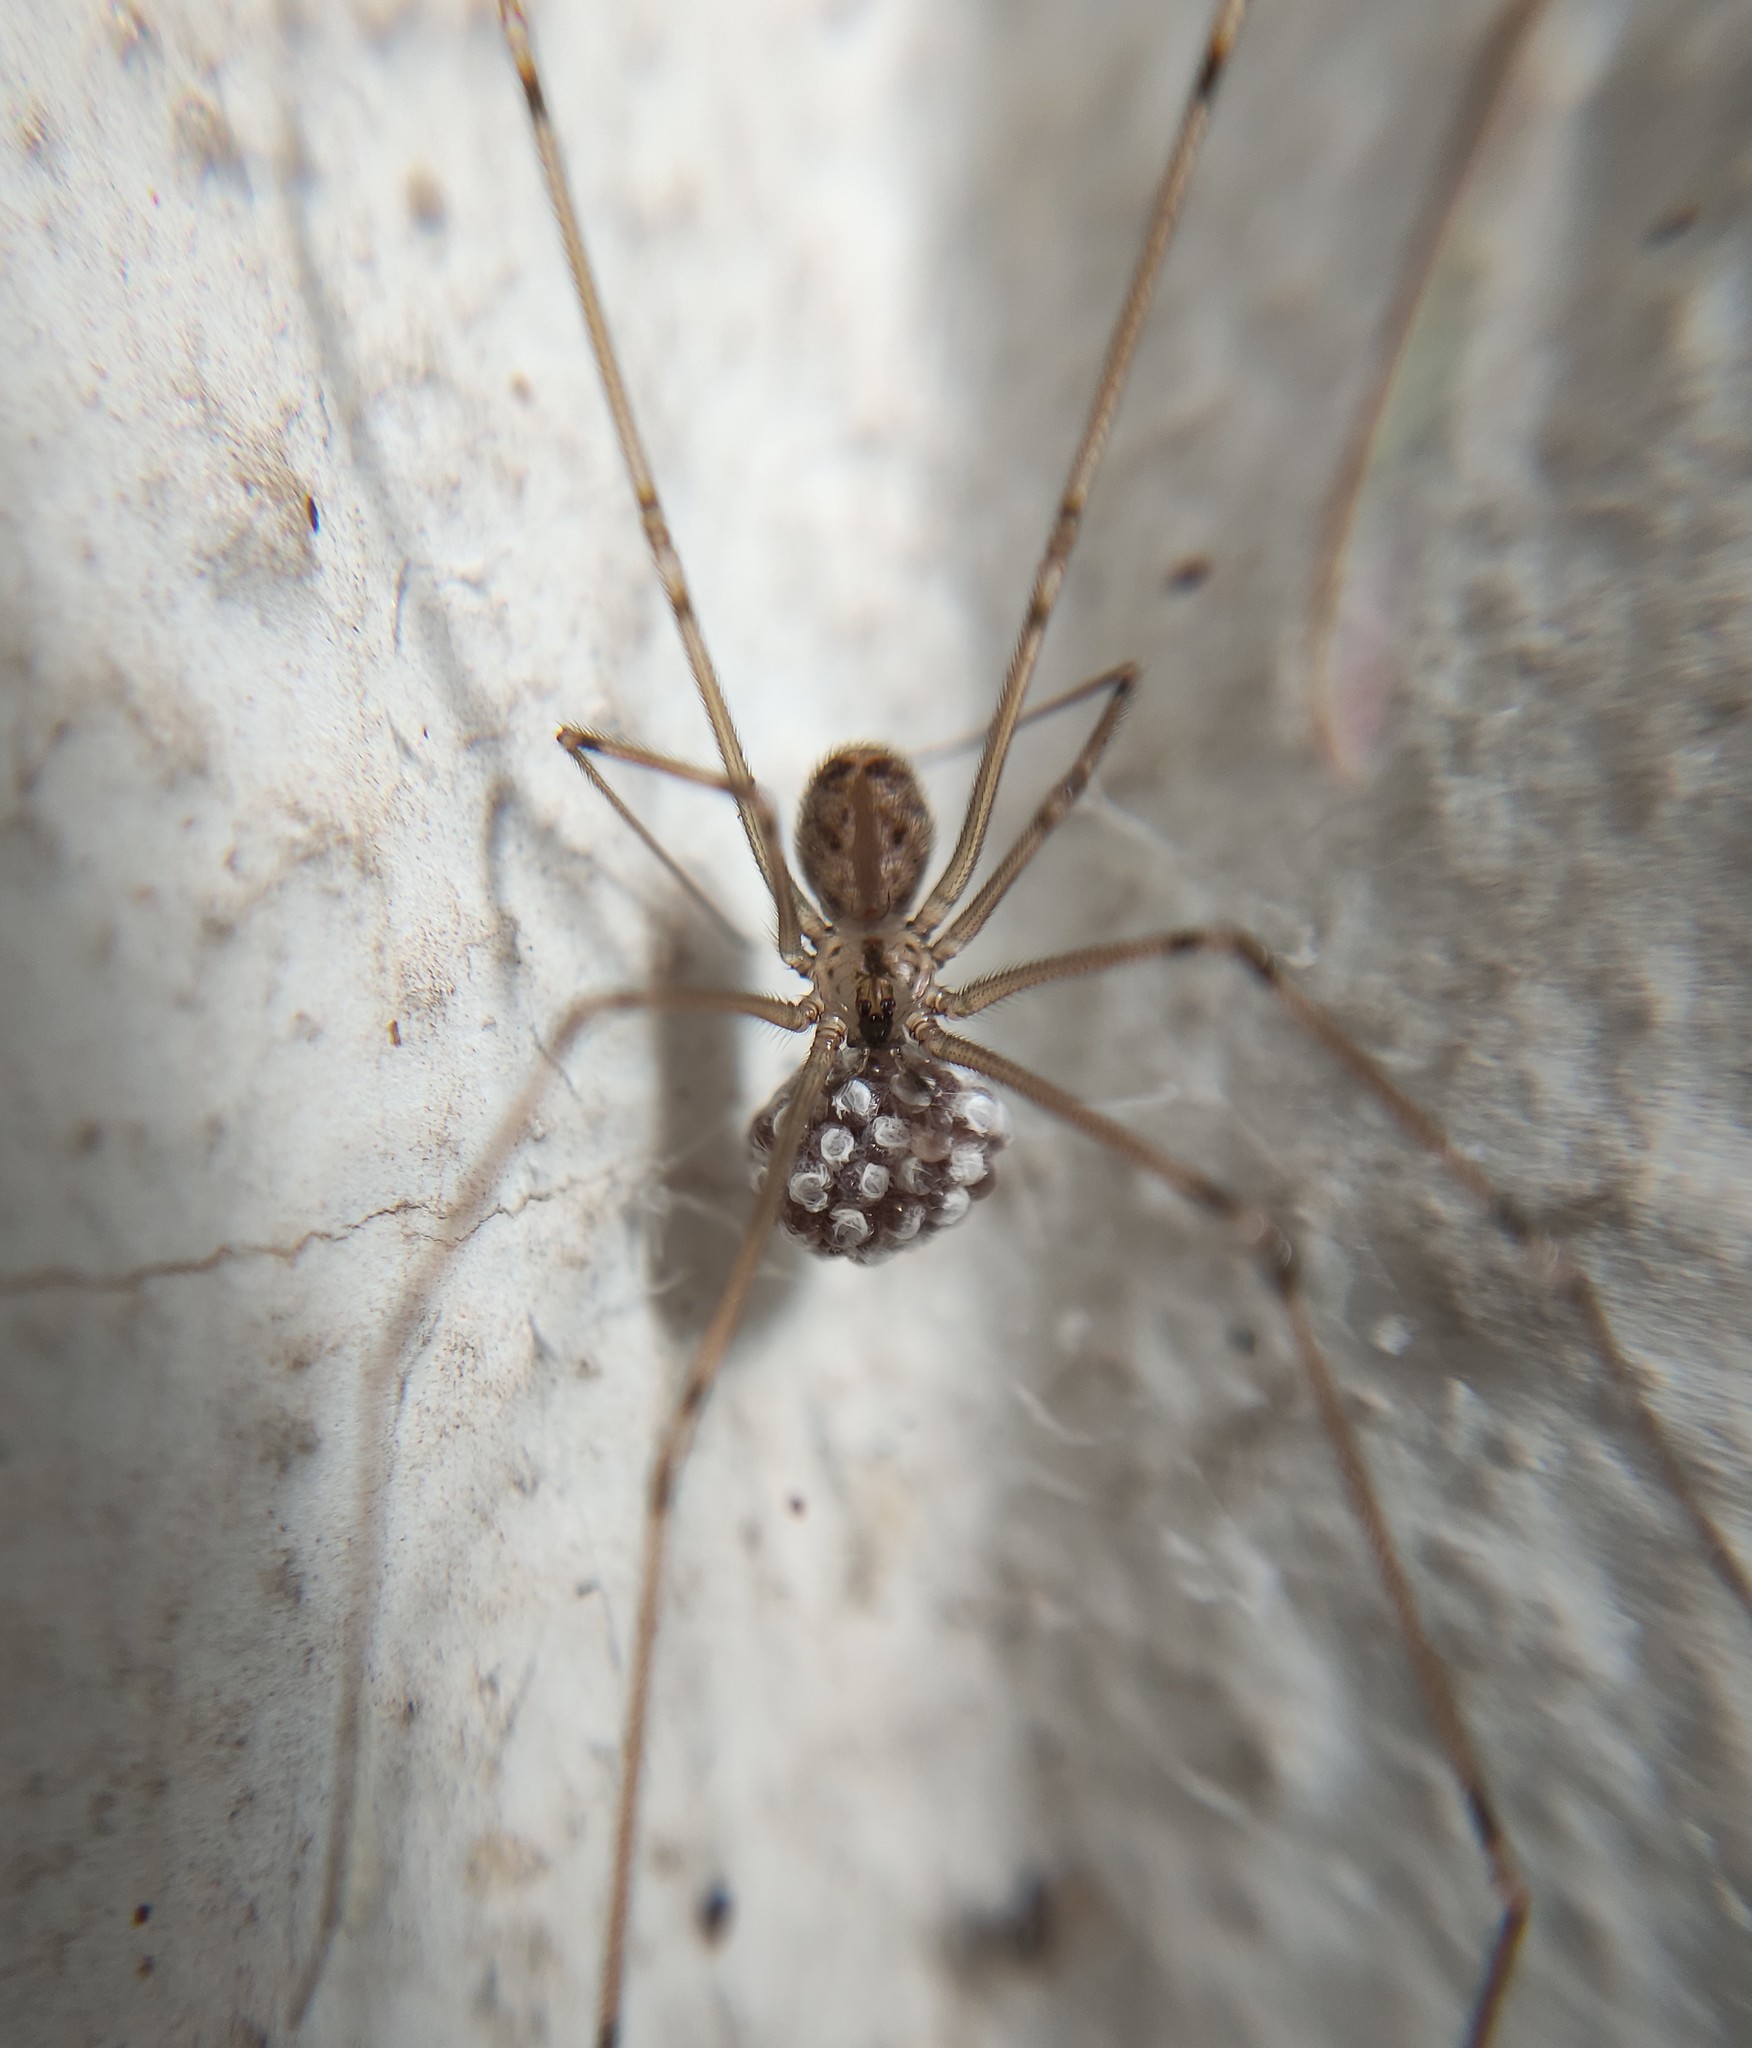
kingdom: Animalia
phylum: Arthropoda
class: Arachnida
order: Araneae
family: Pholcidae
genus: Physocyclus
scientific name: Physocyclus globosus
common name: Cellar spiders
